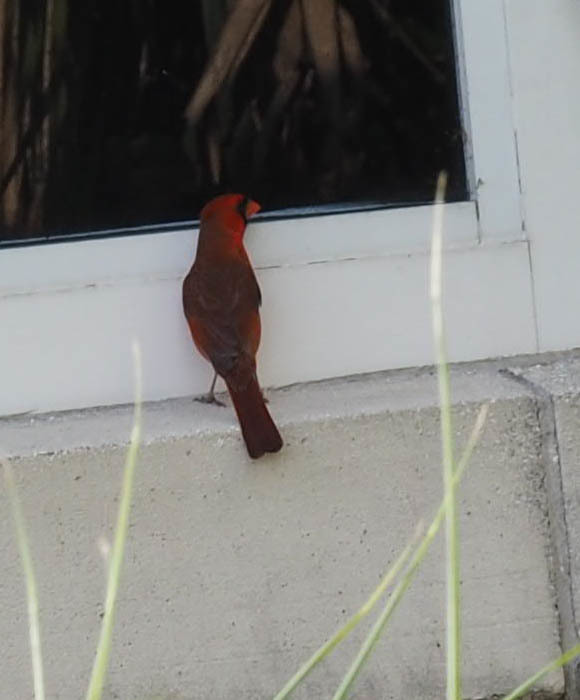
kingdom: Animalia
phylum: Chordata
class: Aves
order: Passeriformes
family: Cardinalidae
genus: Cardinalis
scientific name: Cardinalis cardinalis
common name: Northern cardinal
